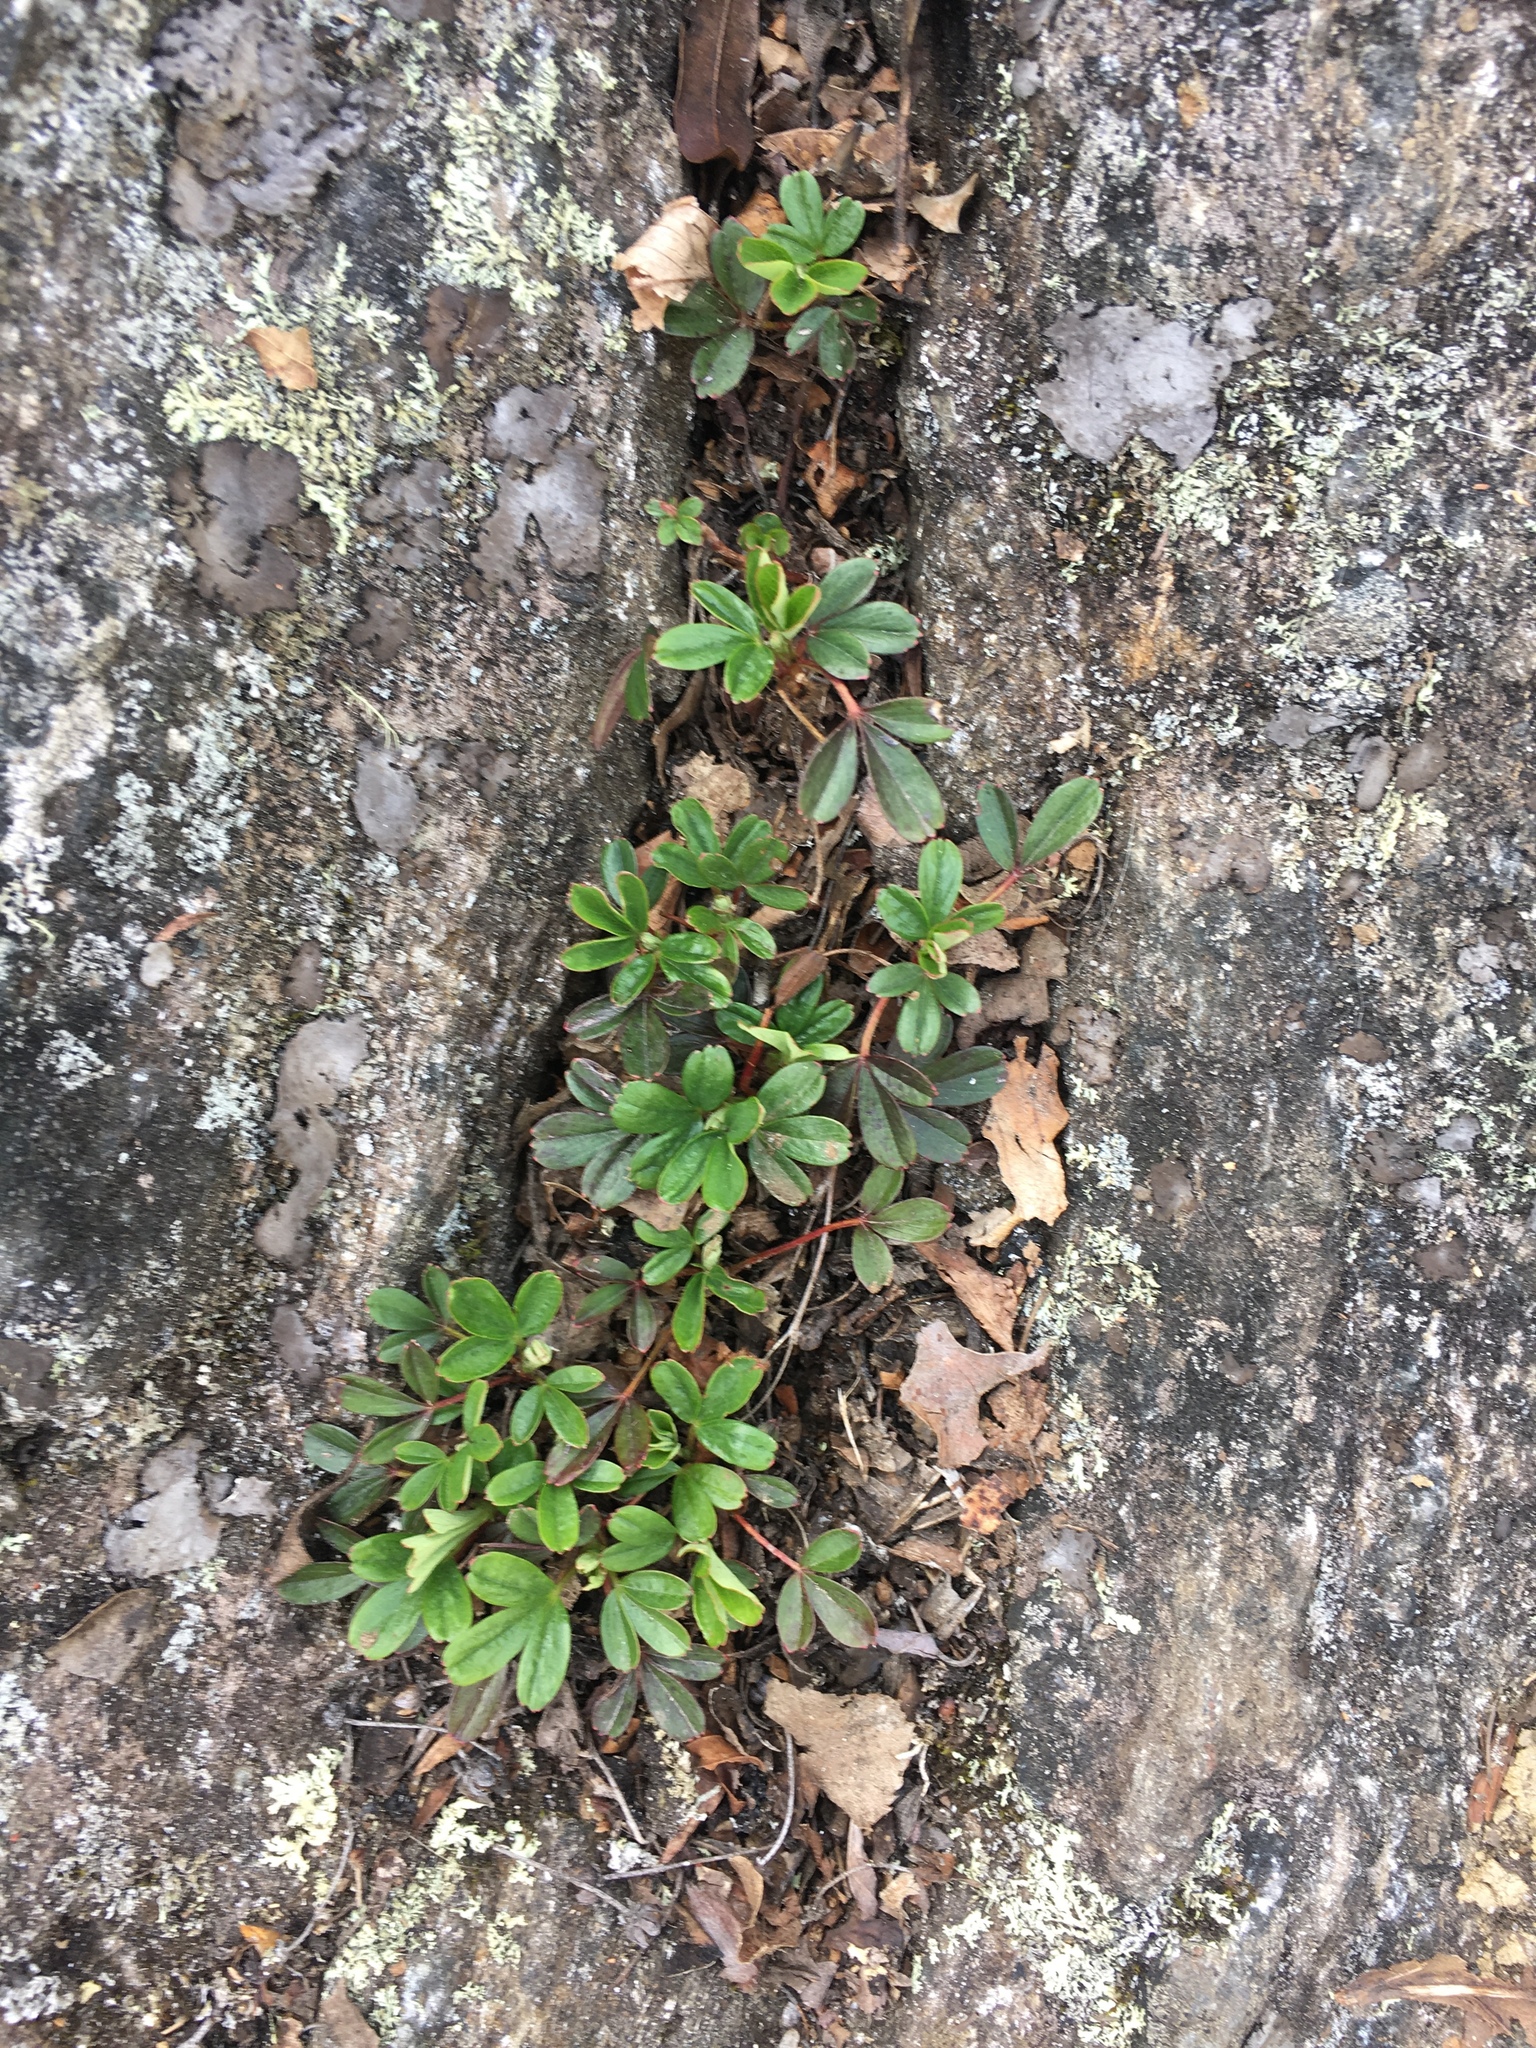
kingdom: Plantae
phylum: Tracheophyta
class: Magnoliopsida
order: Rosales
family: Rosaceae
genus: Sibbaldia
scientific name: Sibbaldia tridentata
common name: Three-toothed cinquefoil
